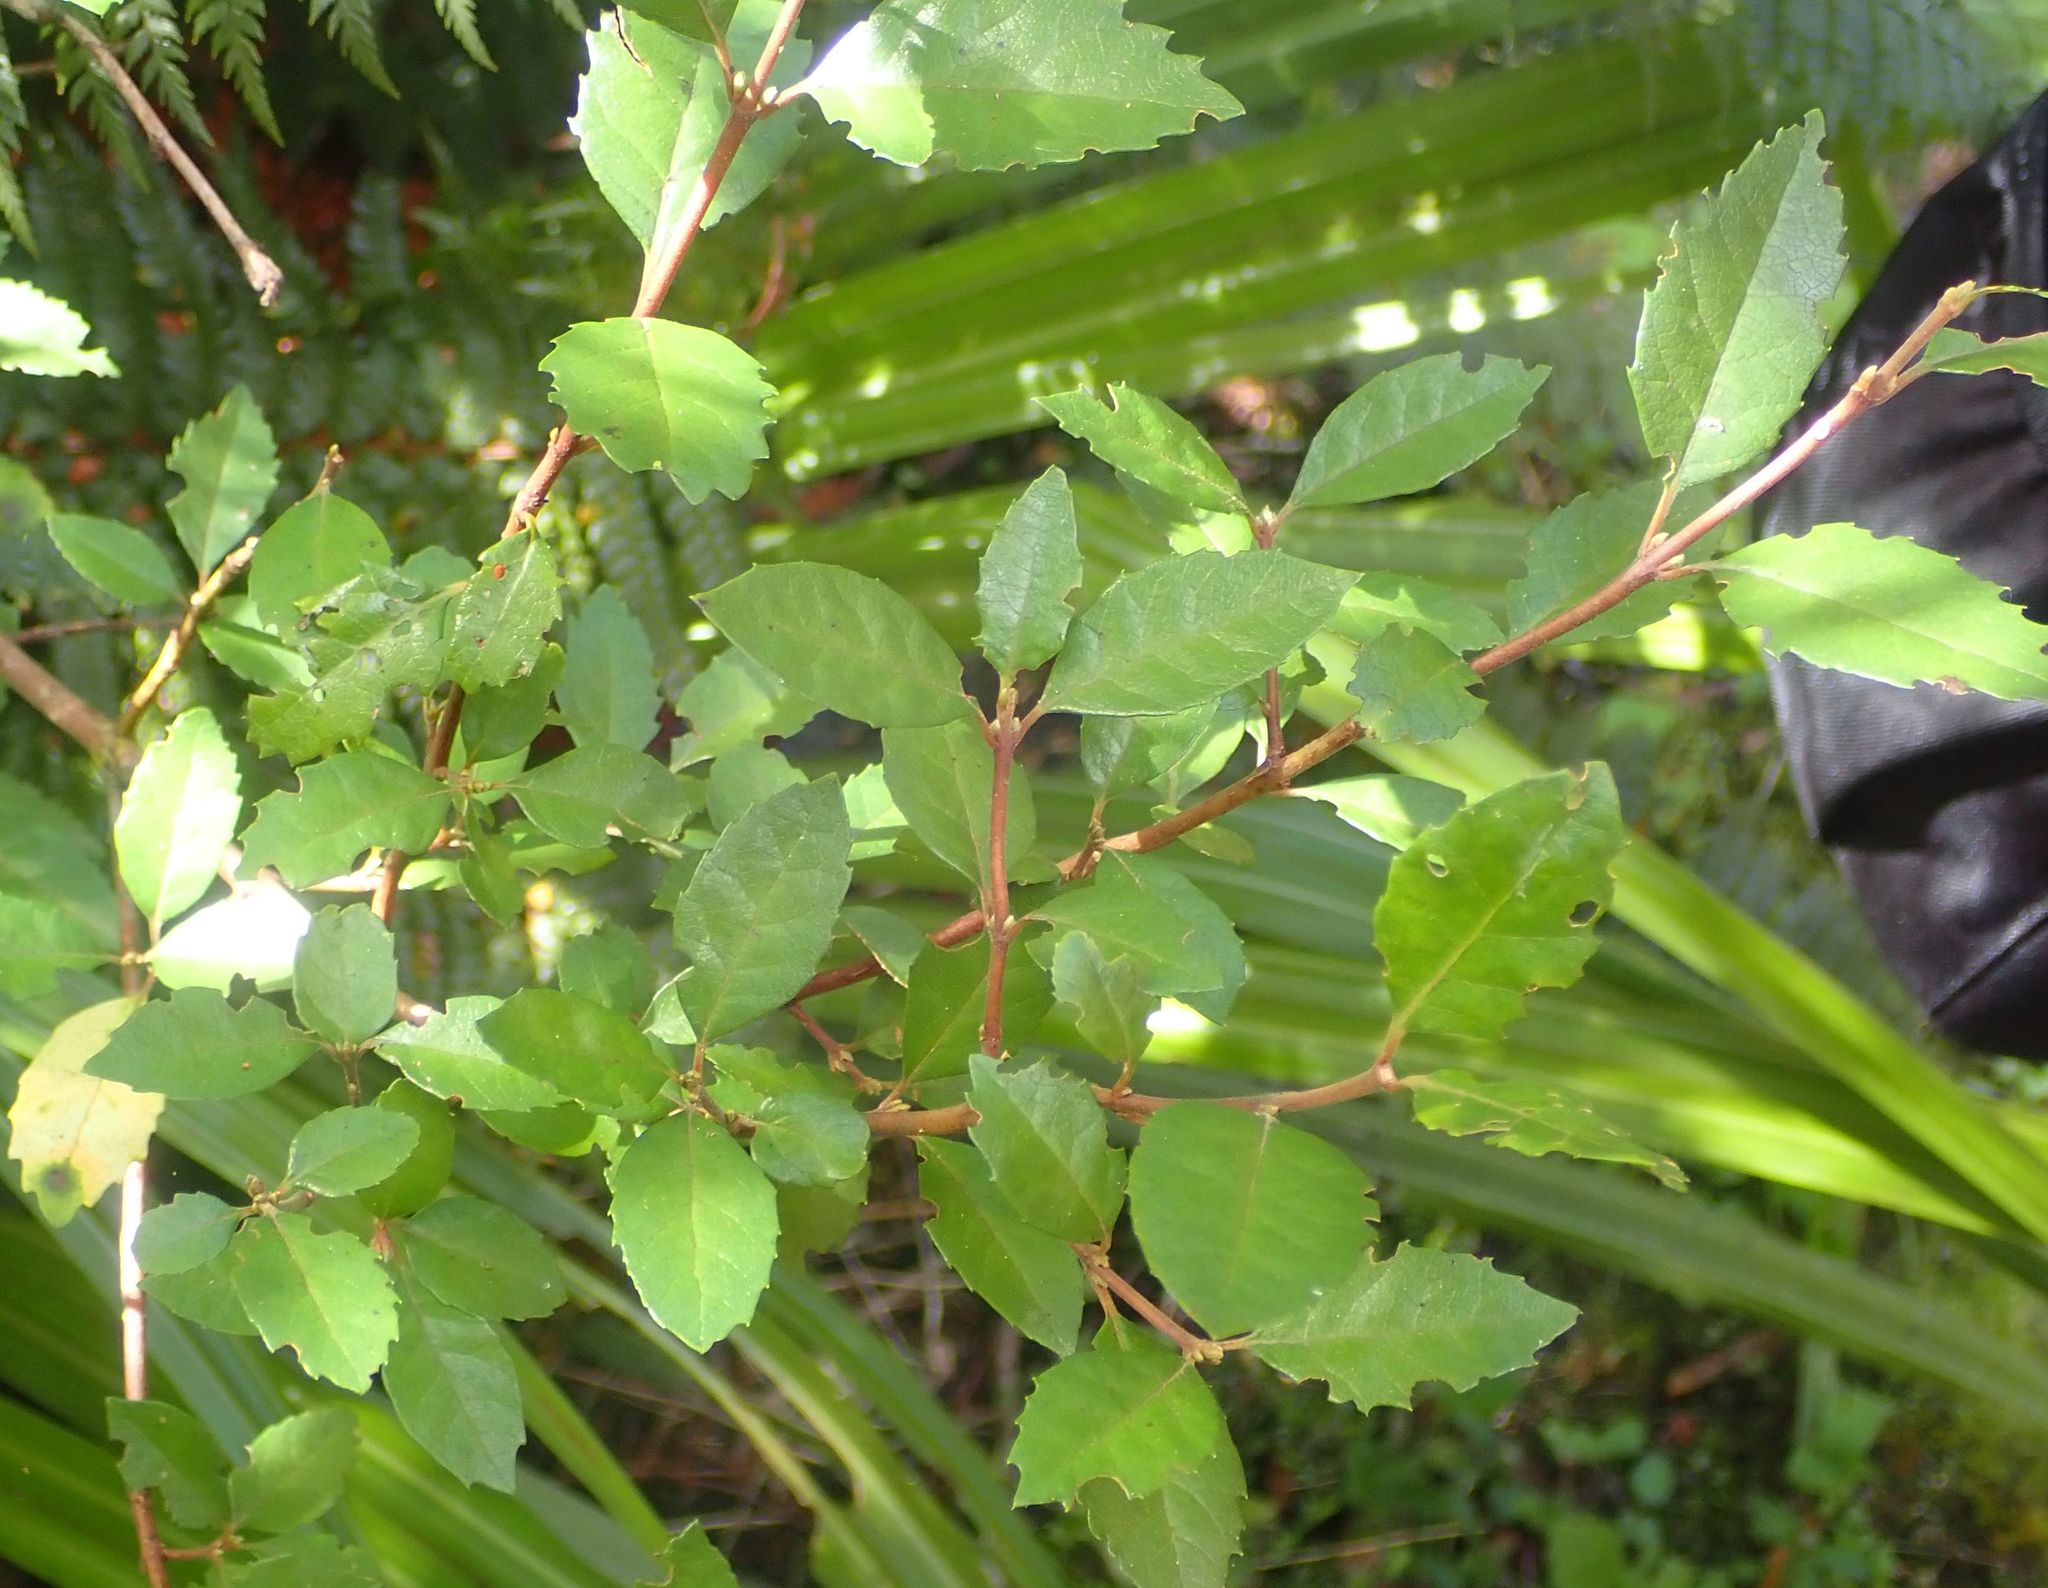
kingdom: Plantae
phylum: Tracheophyta
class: Magnoliopsida
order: Oxalidales
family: Elaeocarpaceae
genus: Aristotelia
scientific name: Aristotelia
